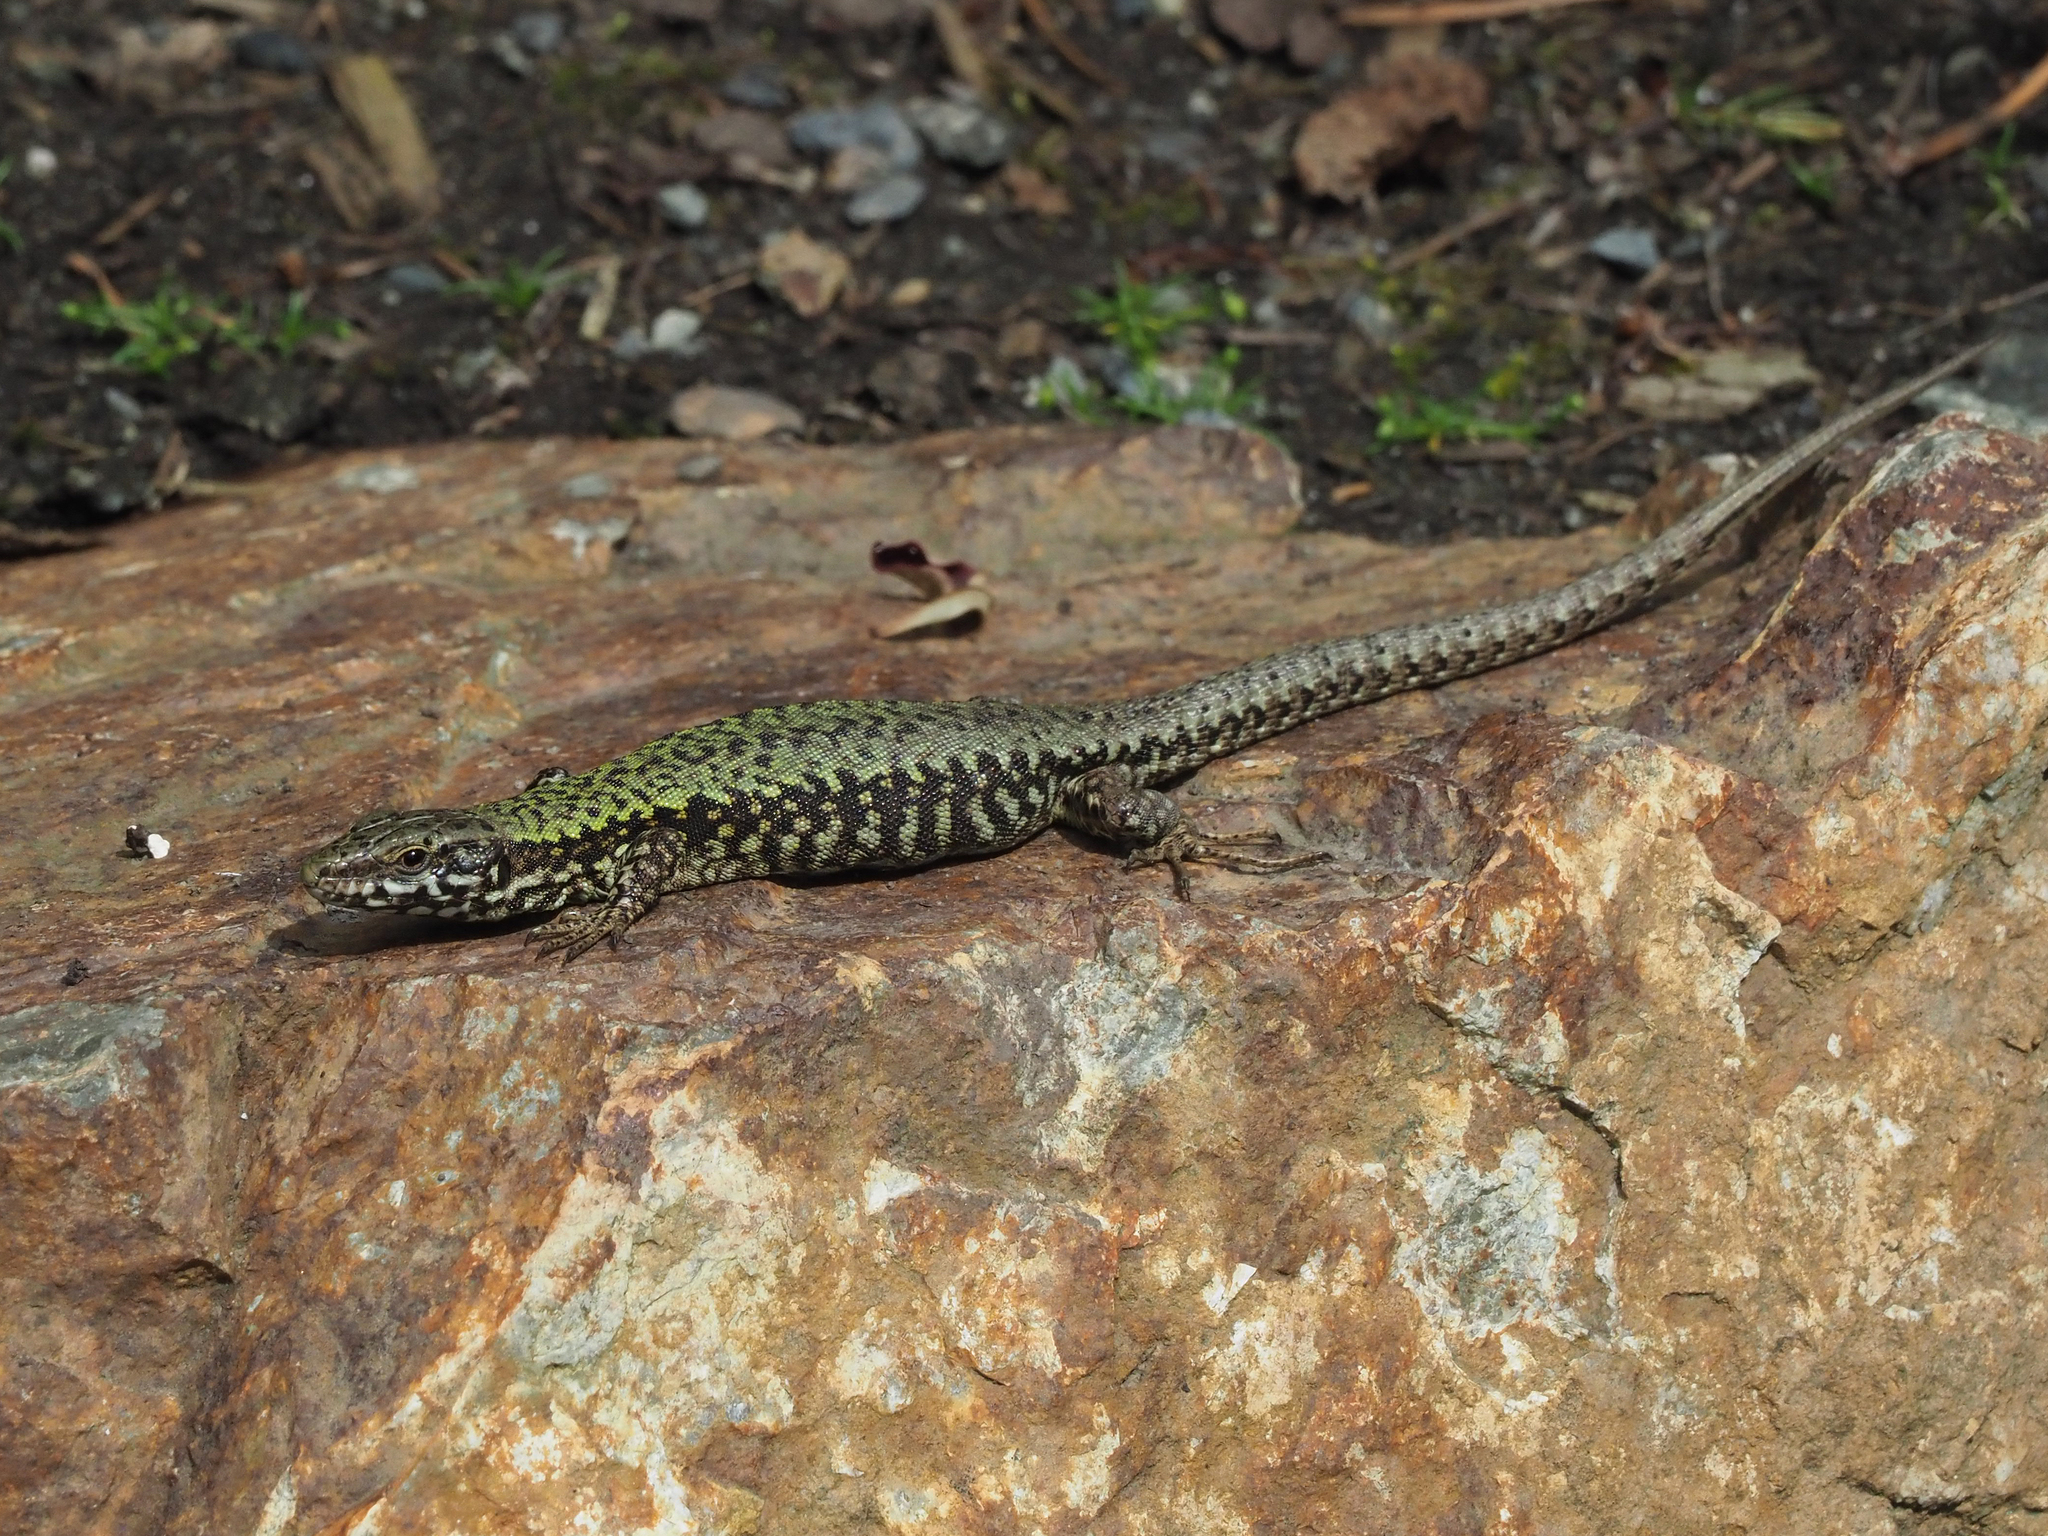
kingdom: Animalia
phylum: Chordata
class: Squamata
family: Lacertidae
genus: Podarcis
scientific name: Podarcis muralis
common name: Common wall lizard
